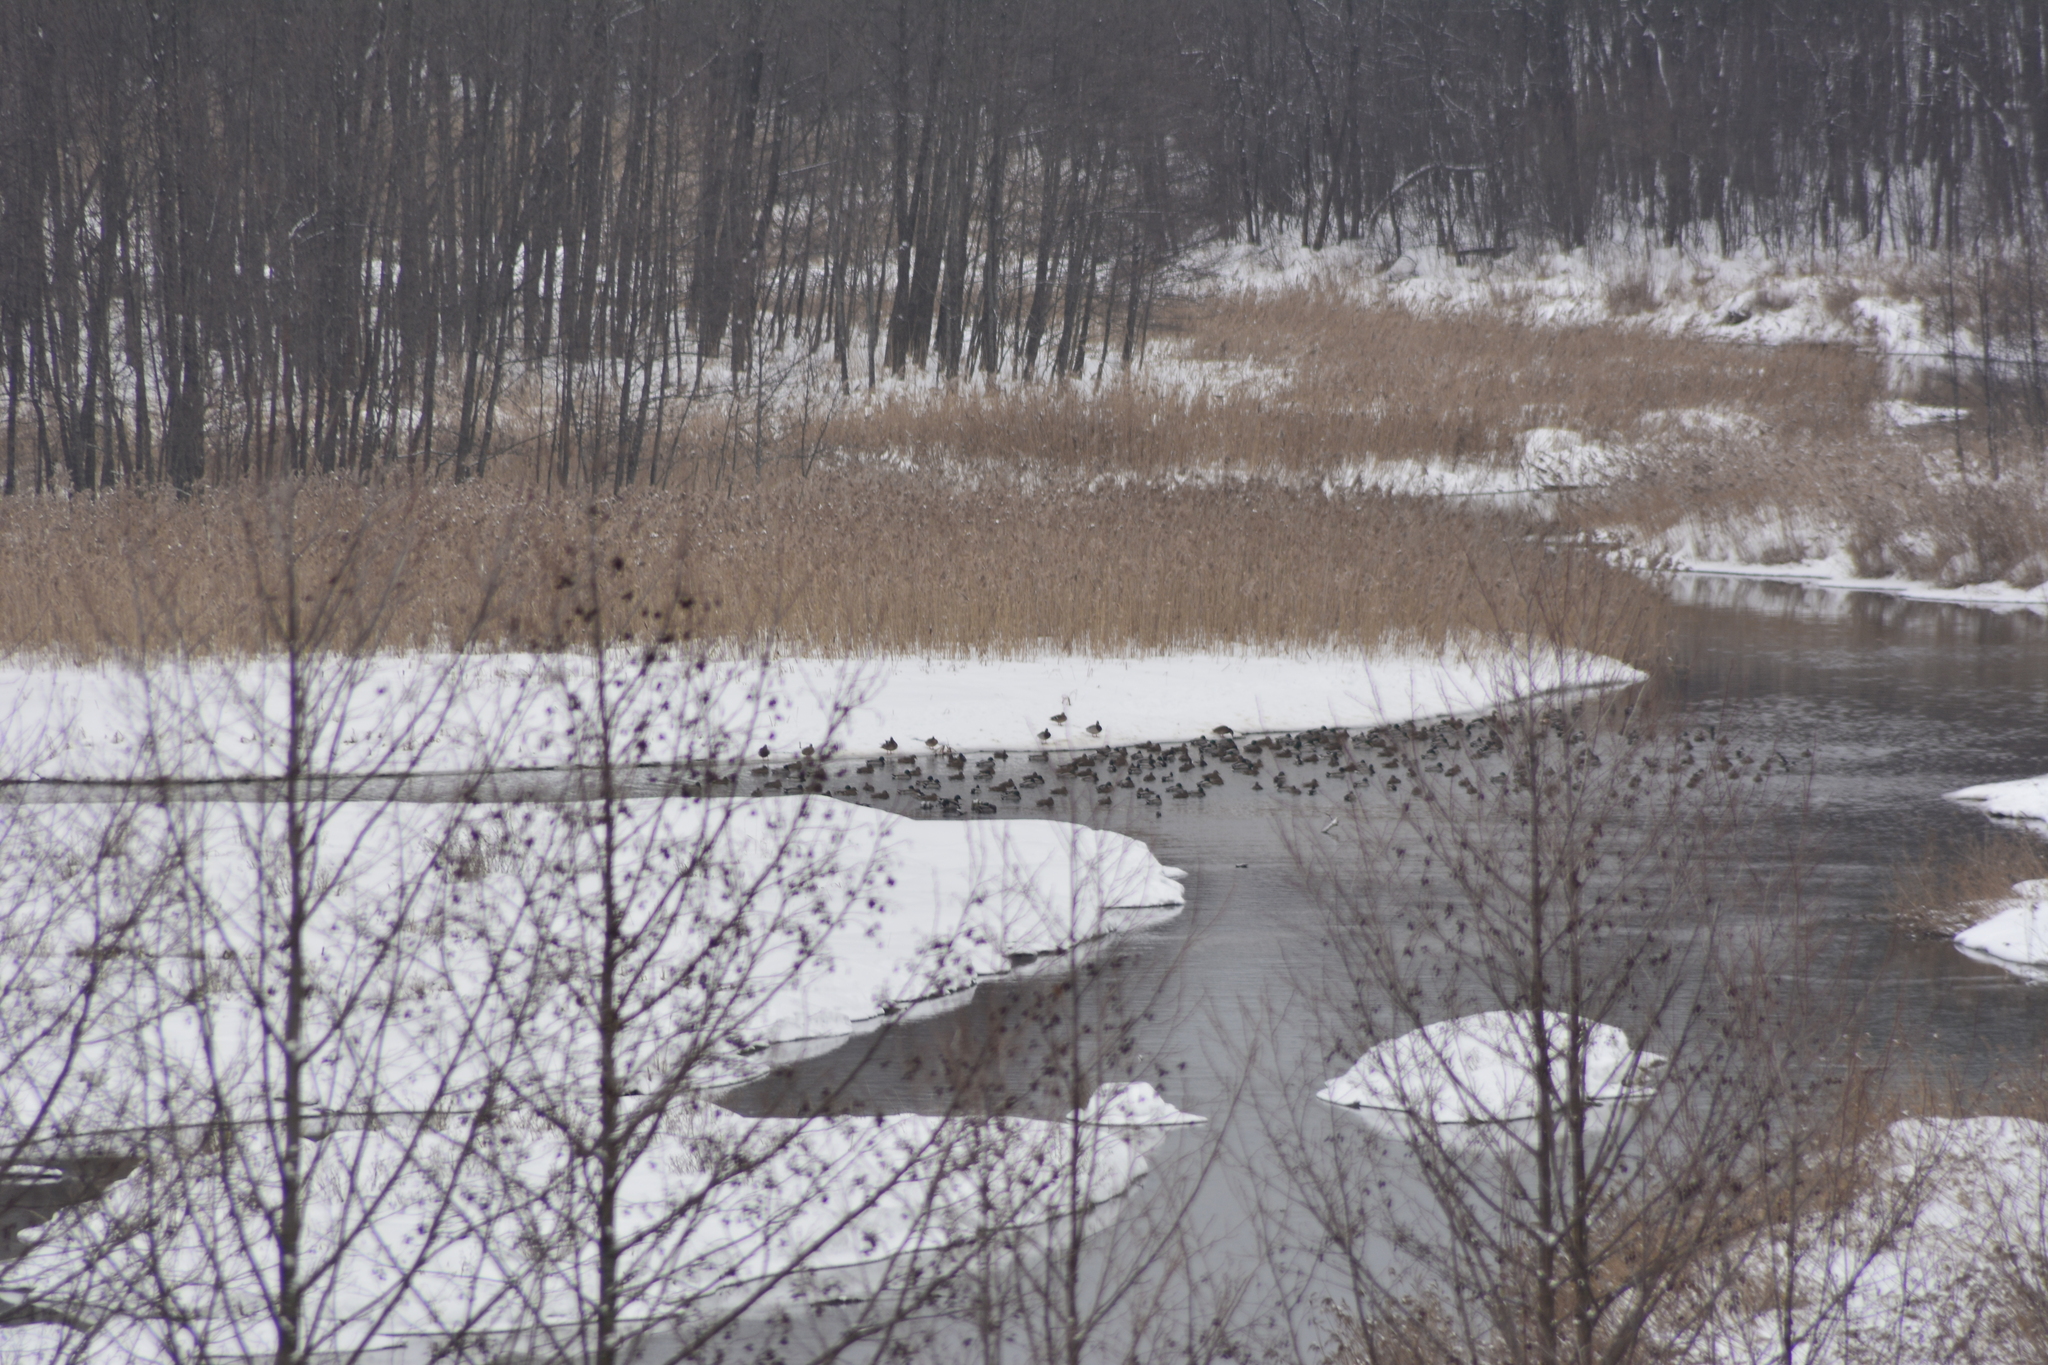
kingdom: Animalia
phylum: Chordata
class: Aves
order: Anseriformes
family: Anatidae
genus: Anas
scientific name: Anas platyrhynchos
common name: Mallard
